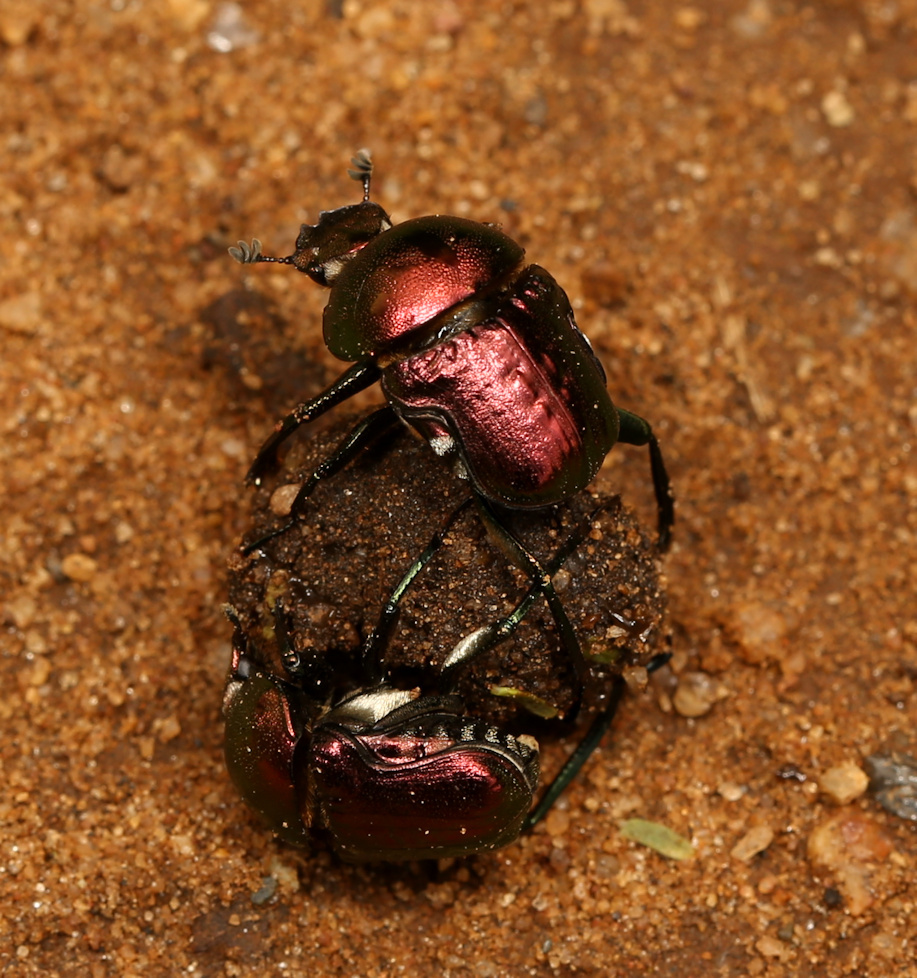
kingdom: Animalia
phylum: Arthropoda
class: Insecta
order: Coleoptera
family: Scarabaeidae
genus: Gymnopleurus
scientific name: Gymnopleurus virens
